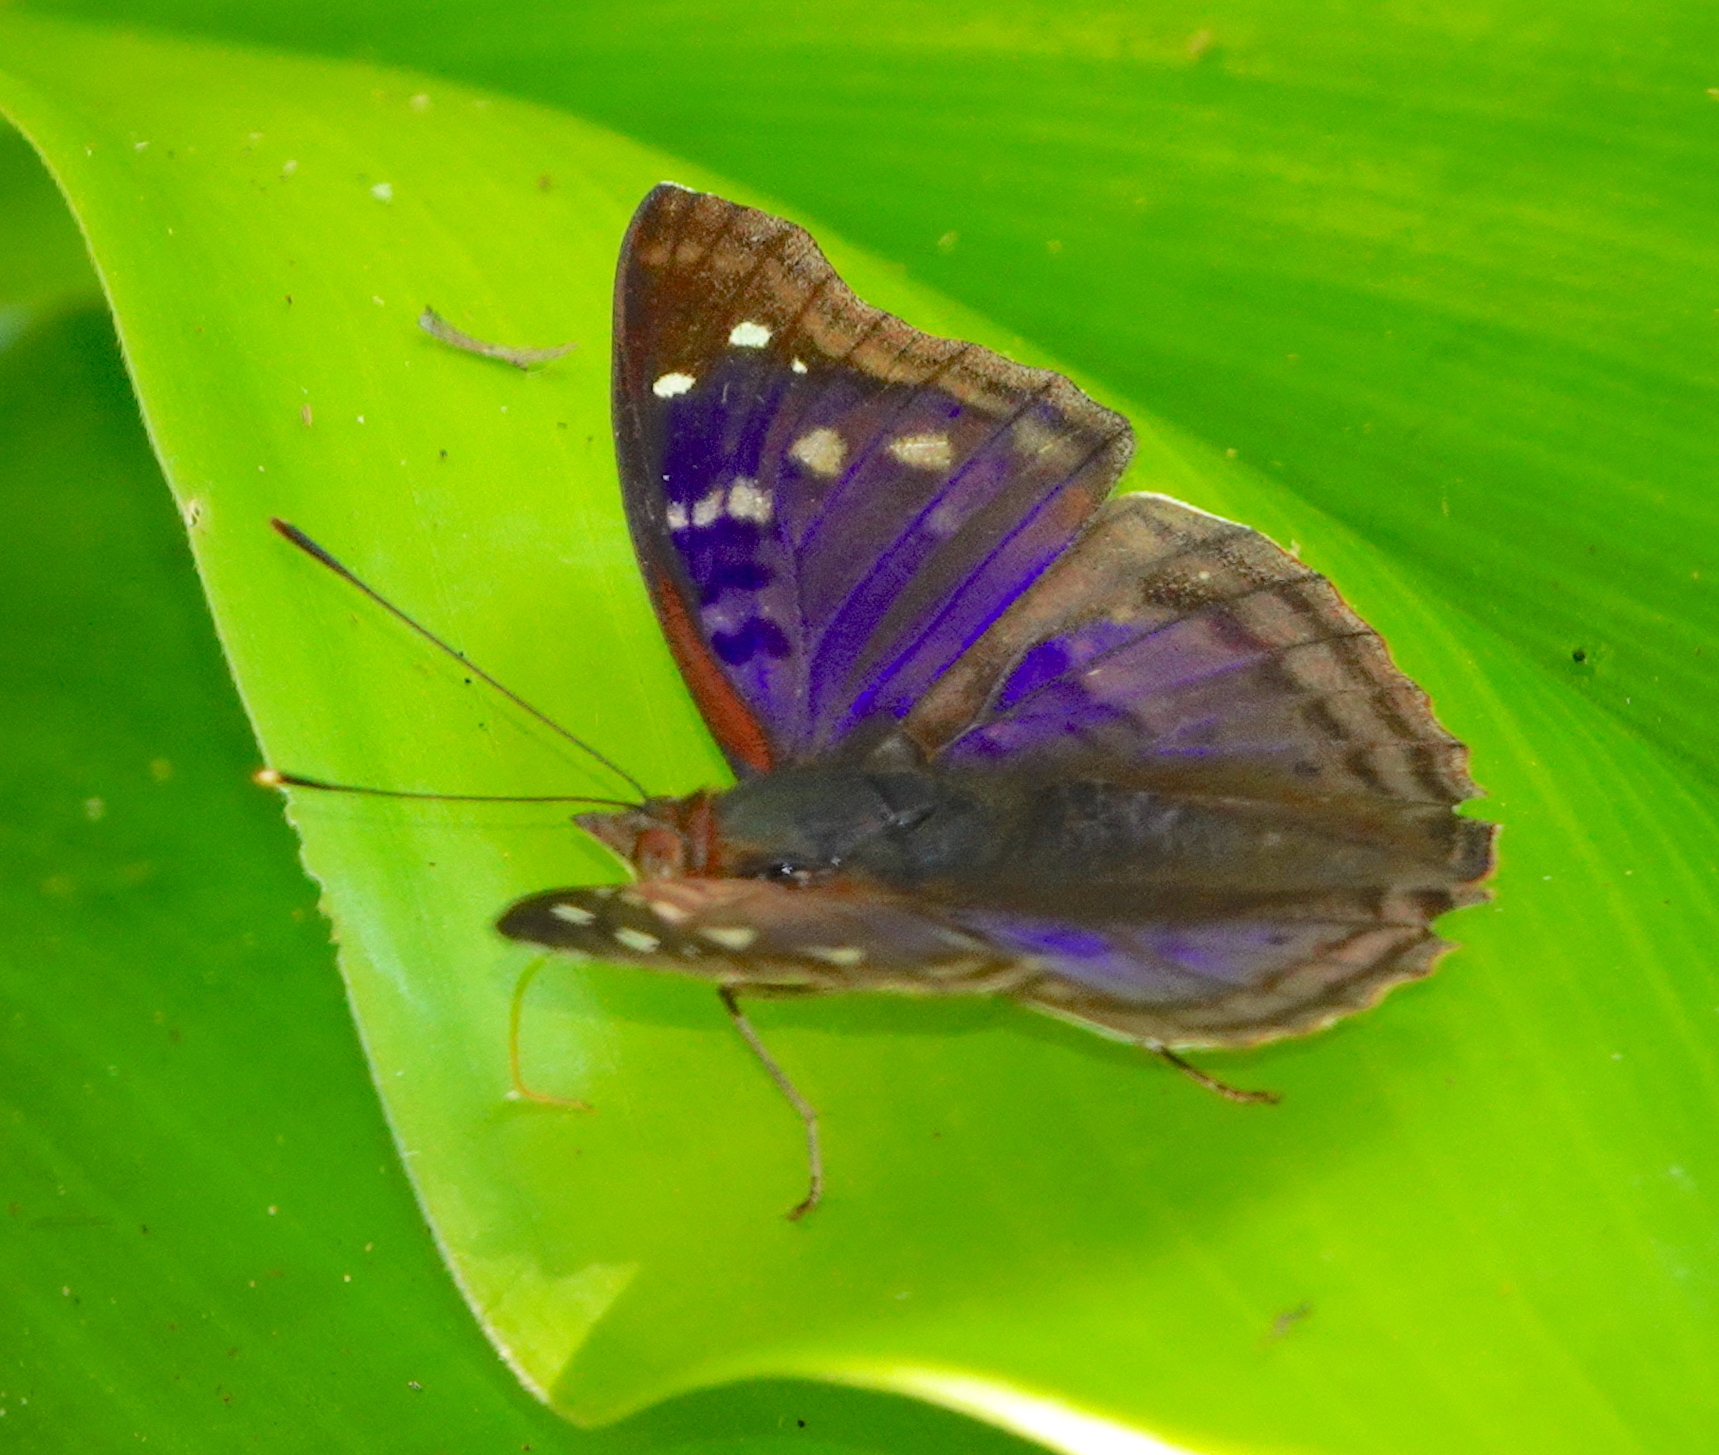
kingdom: Animalia
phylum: Arthropoda
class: Insecta
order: Lepidoptera
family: Nymphalidae
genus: Doxocopa
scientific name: Doxocopa agathina
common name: Agathina emperor
